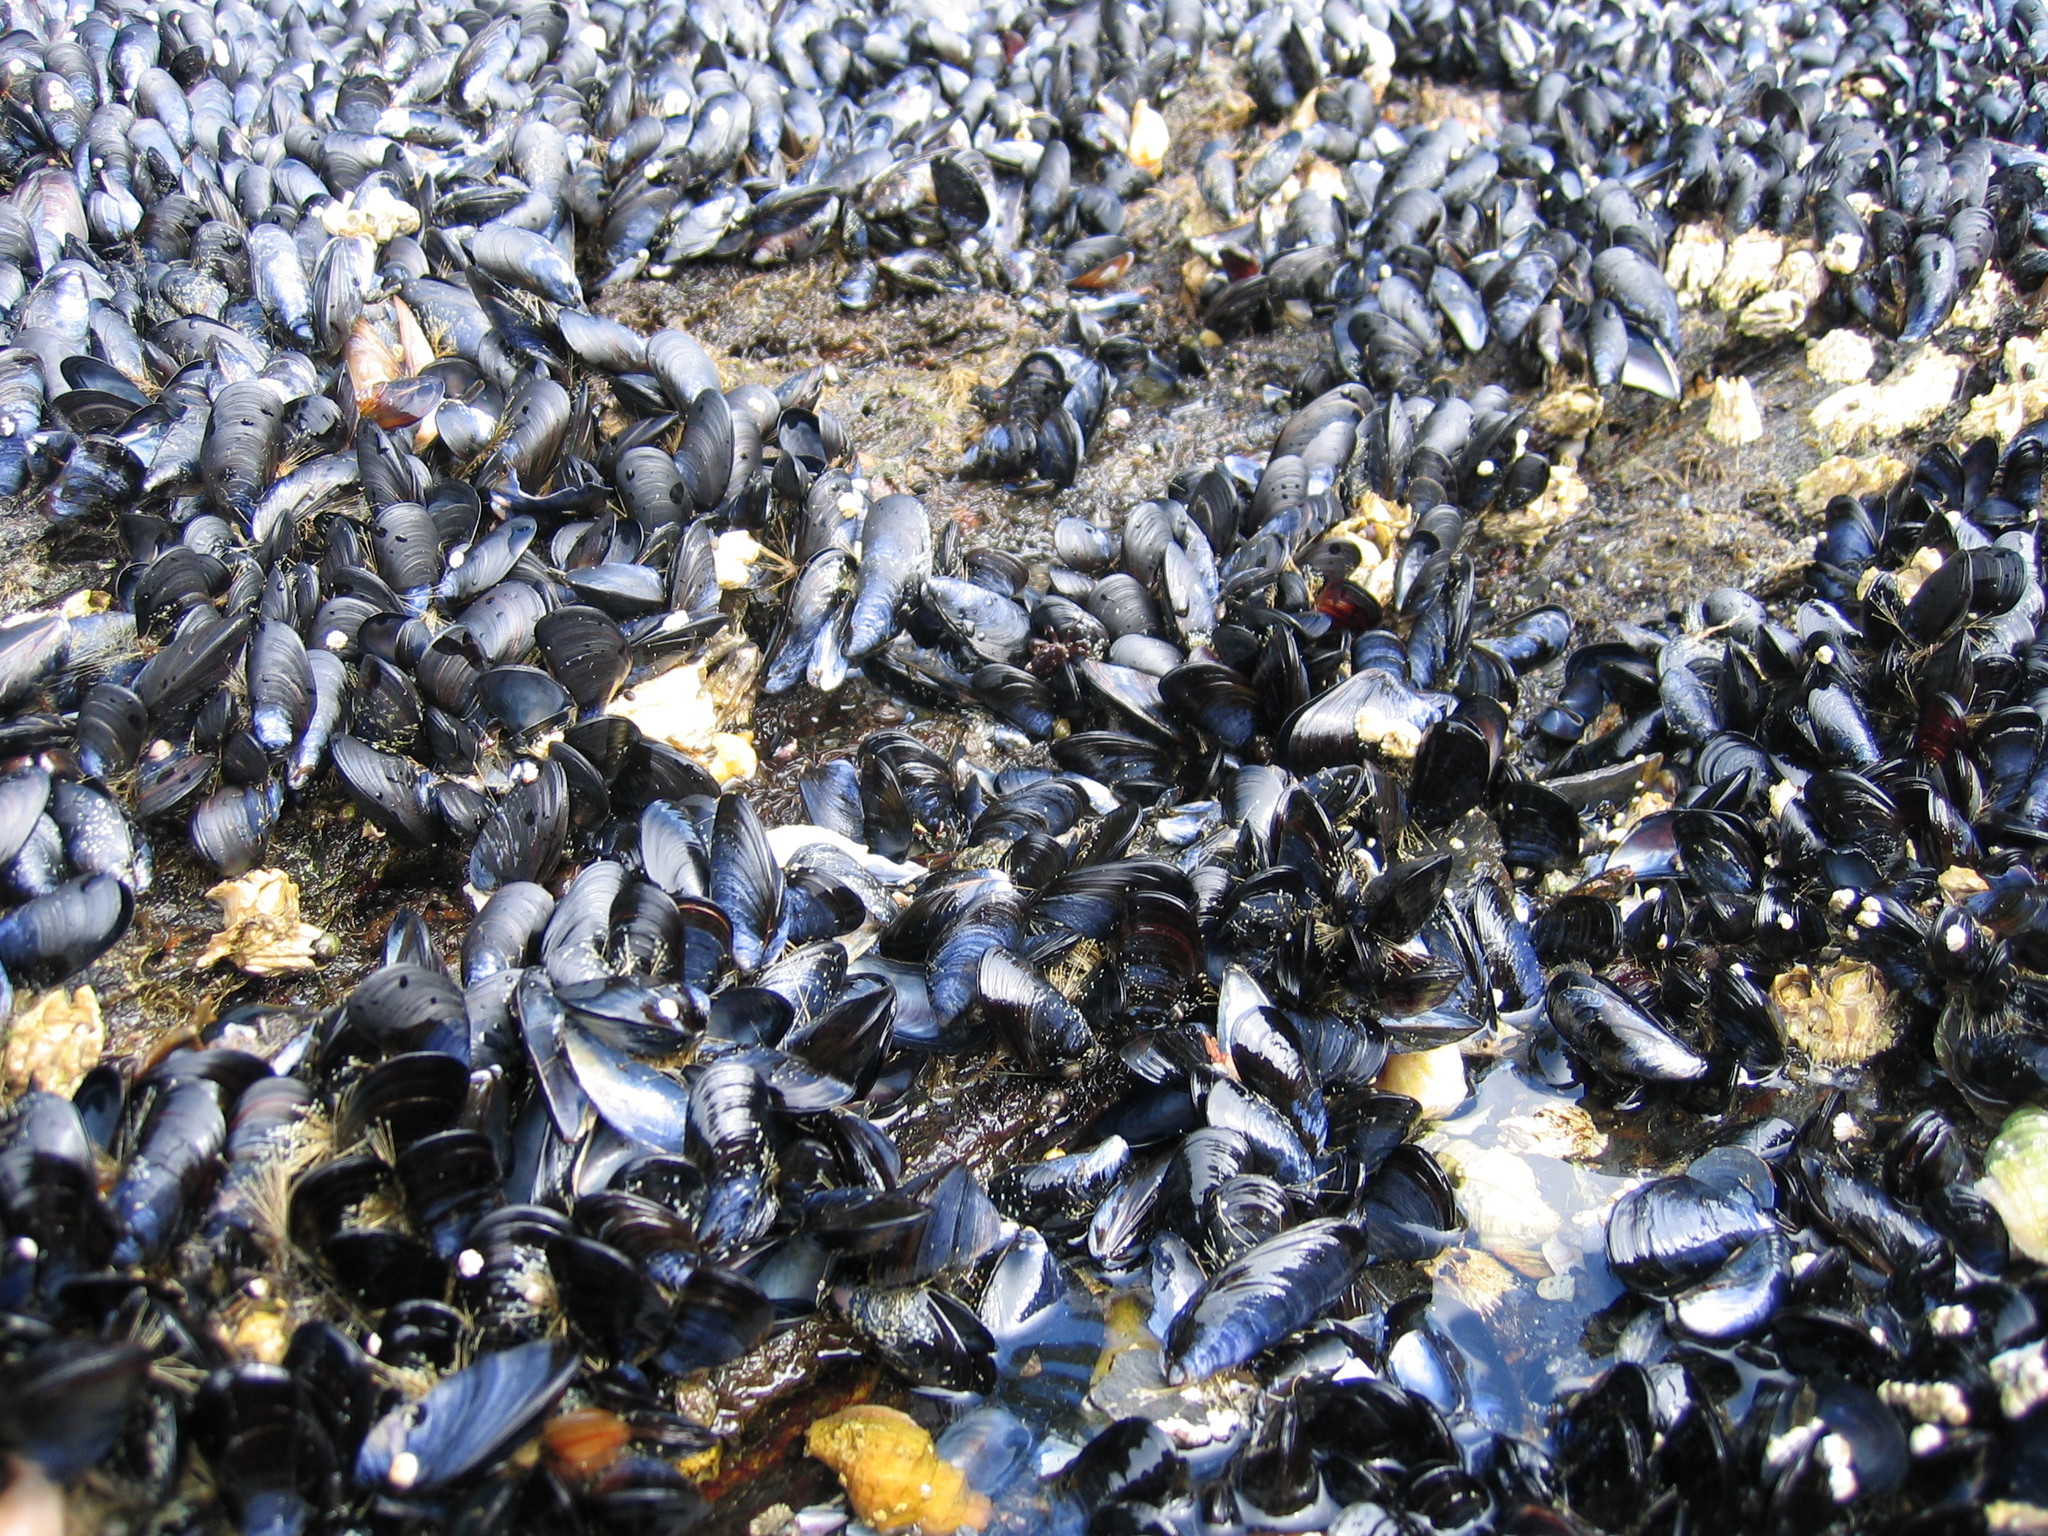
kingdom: Animalia
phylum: Mollusca
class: Bivalvia
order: Mytilida
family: Mytilidae
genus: Mytilus
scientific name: Mytilus trossulus
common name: Northern blue mussel
